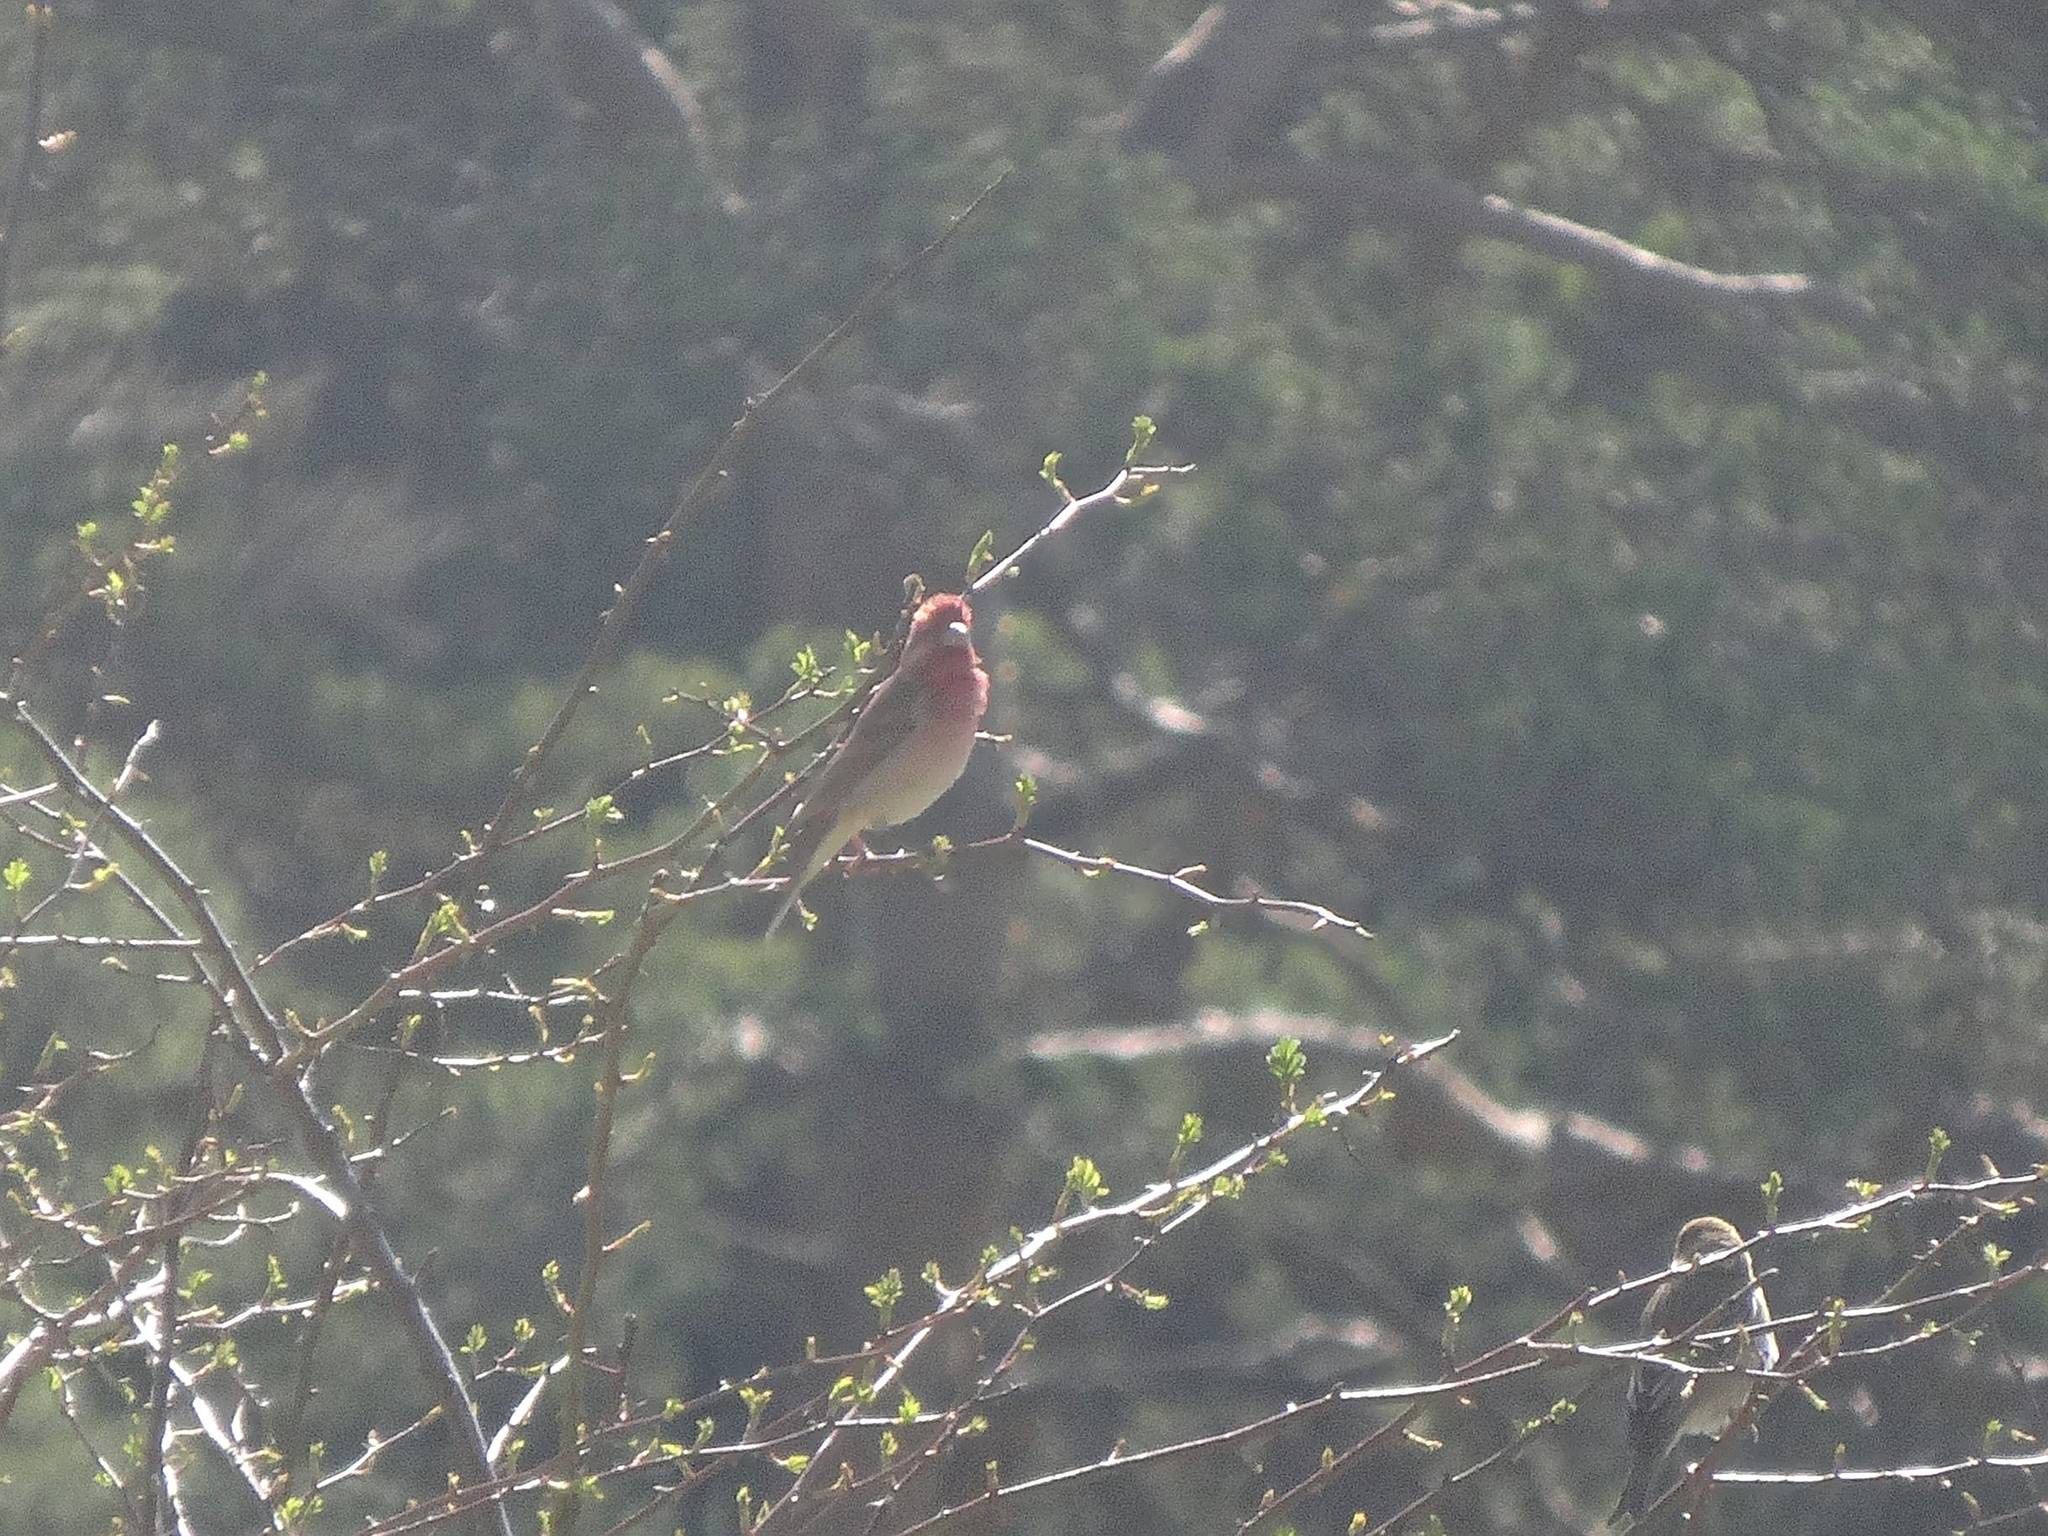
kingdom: Animalia
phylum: Chordata
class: Aves
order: Passeriformes
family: Fringillidae
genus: Carpodacus
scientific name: Carpodacus erythrinus
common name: Common rosefinch
